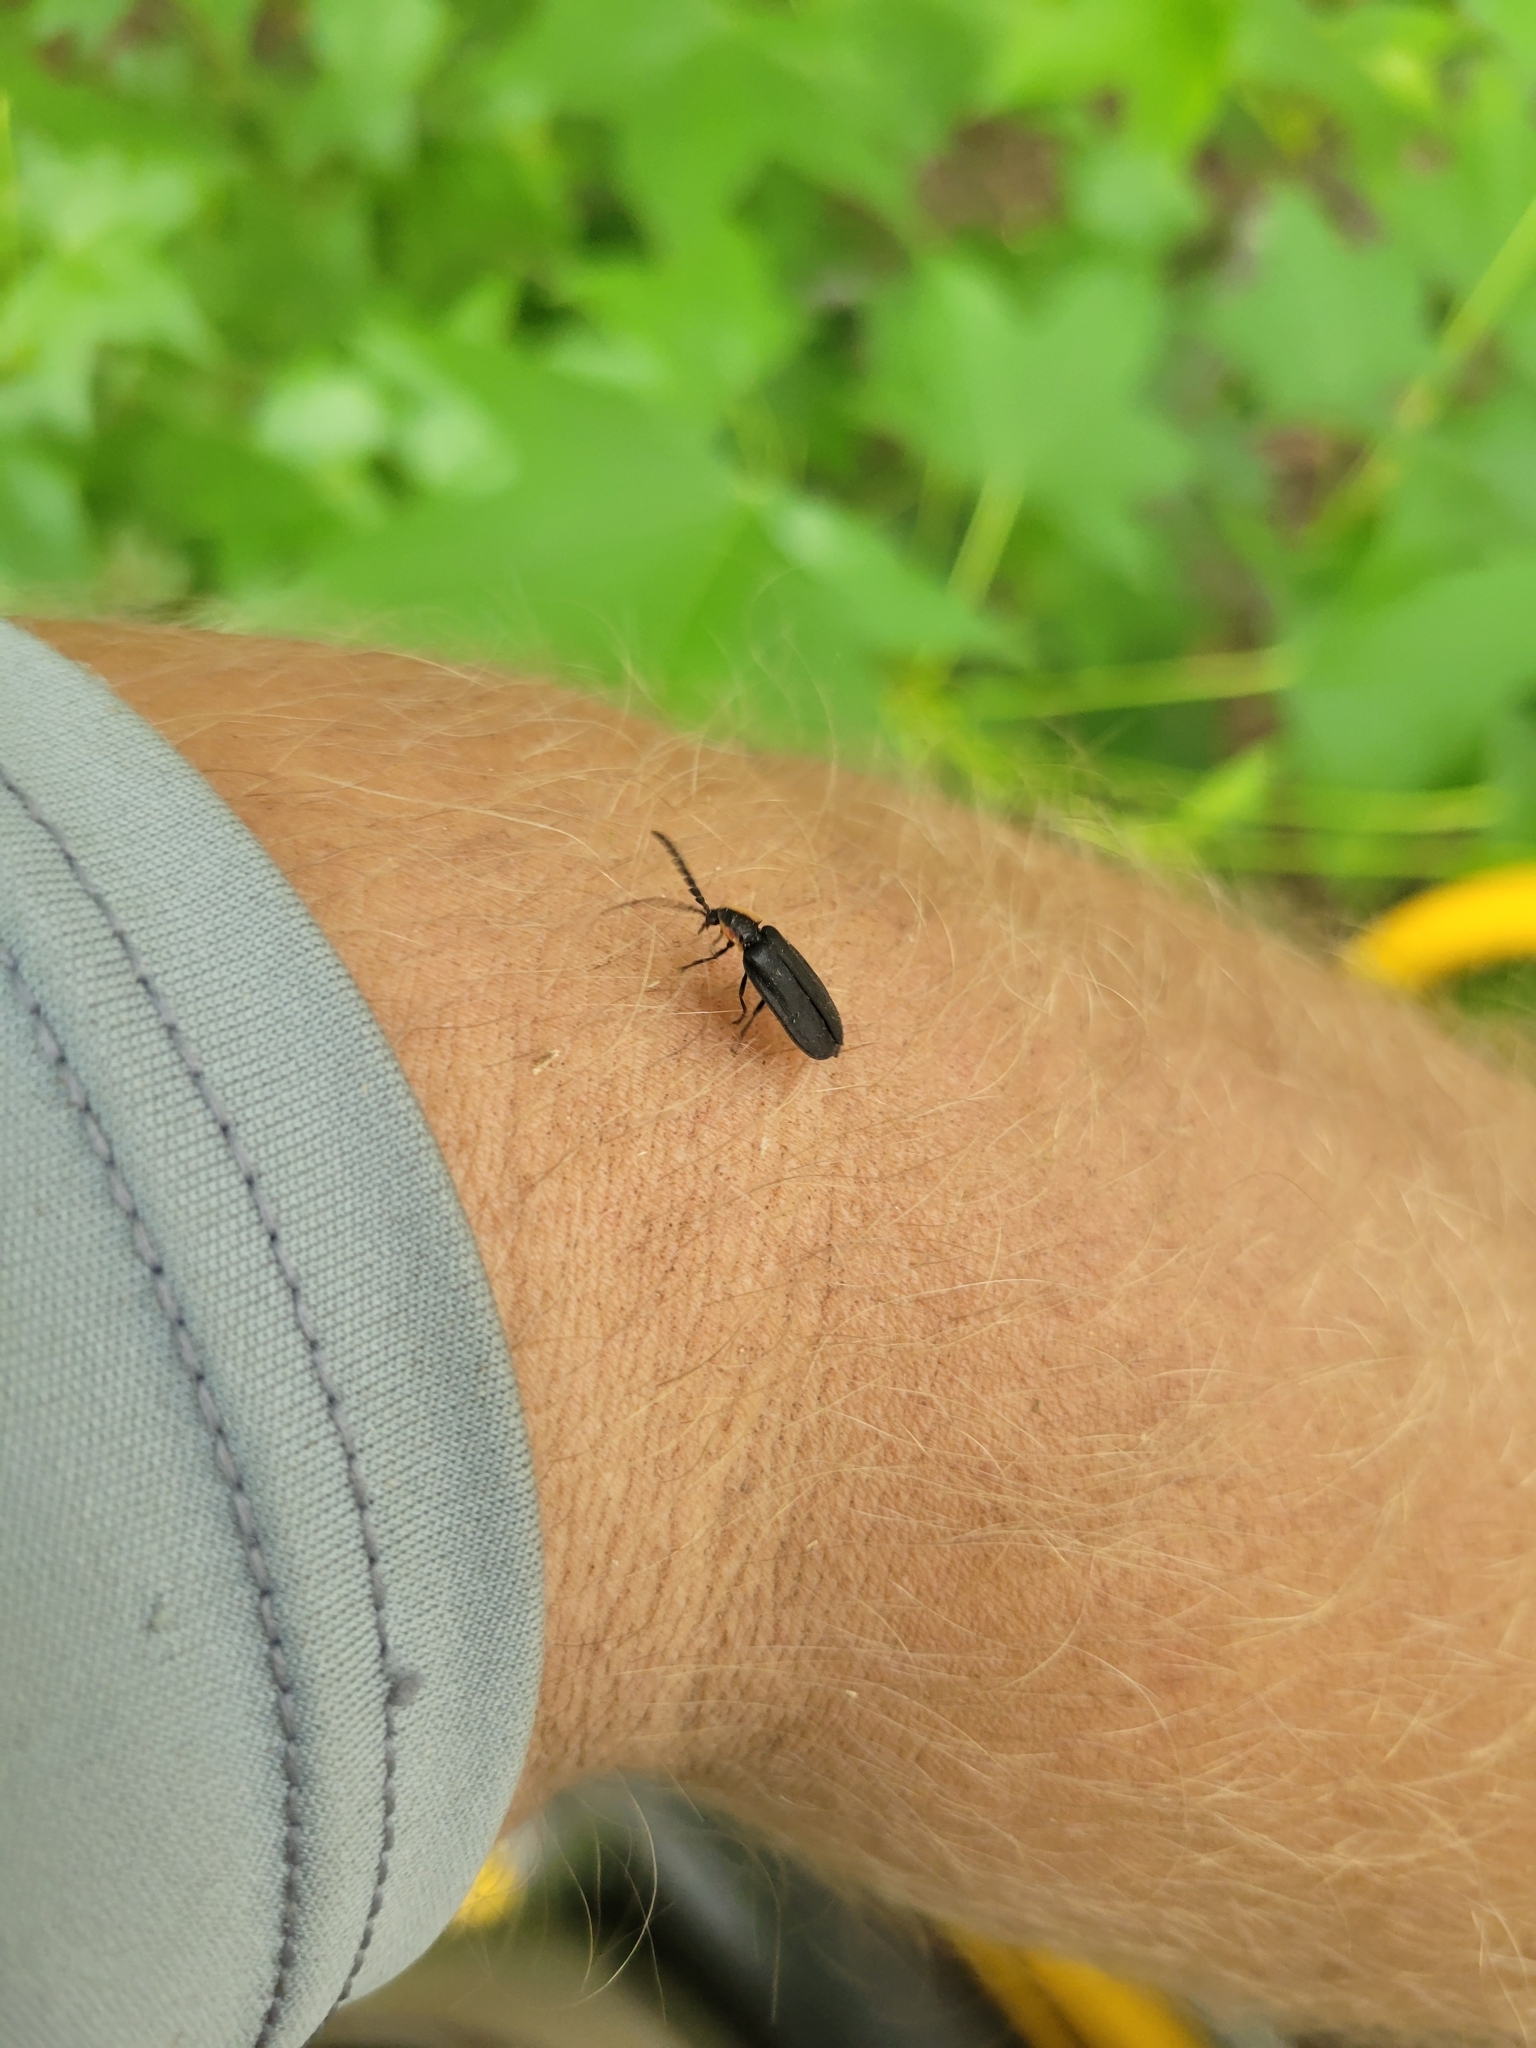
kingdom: Animalia
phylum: Arthropoda
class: Insecta
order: Coleoptera
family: Lampyridae
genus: Lucidota
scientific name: Lucidota atra
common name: Black firefly
